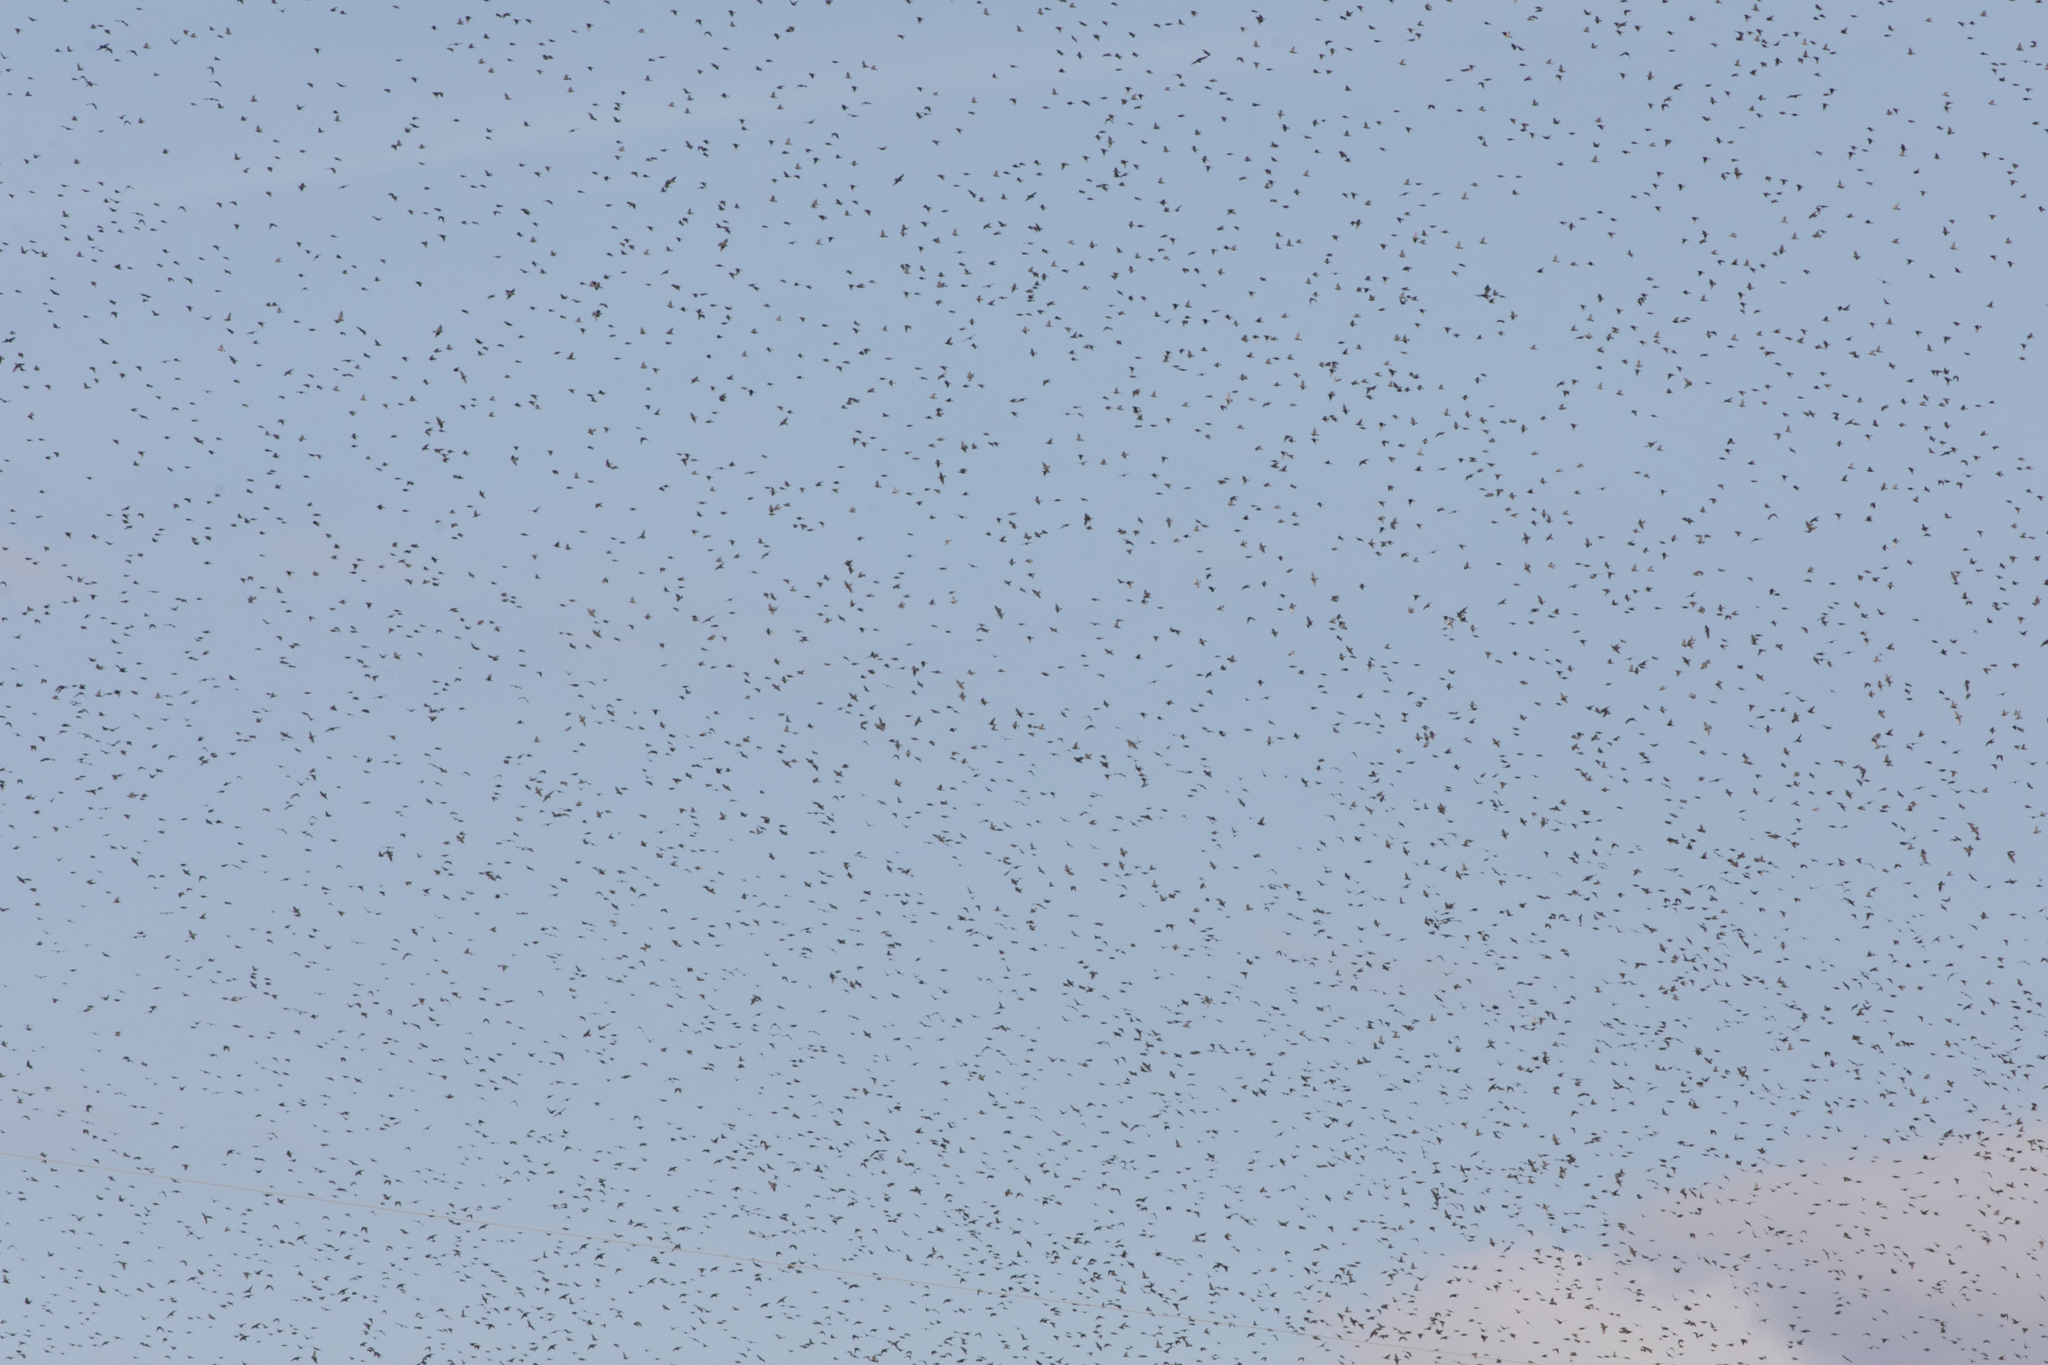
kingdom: Animalia
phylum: Chordata
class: Aves
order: Passeriformes
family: Sturnidae
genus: Sturnus
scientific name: Sturnus vulgaris
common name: Common starling
